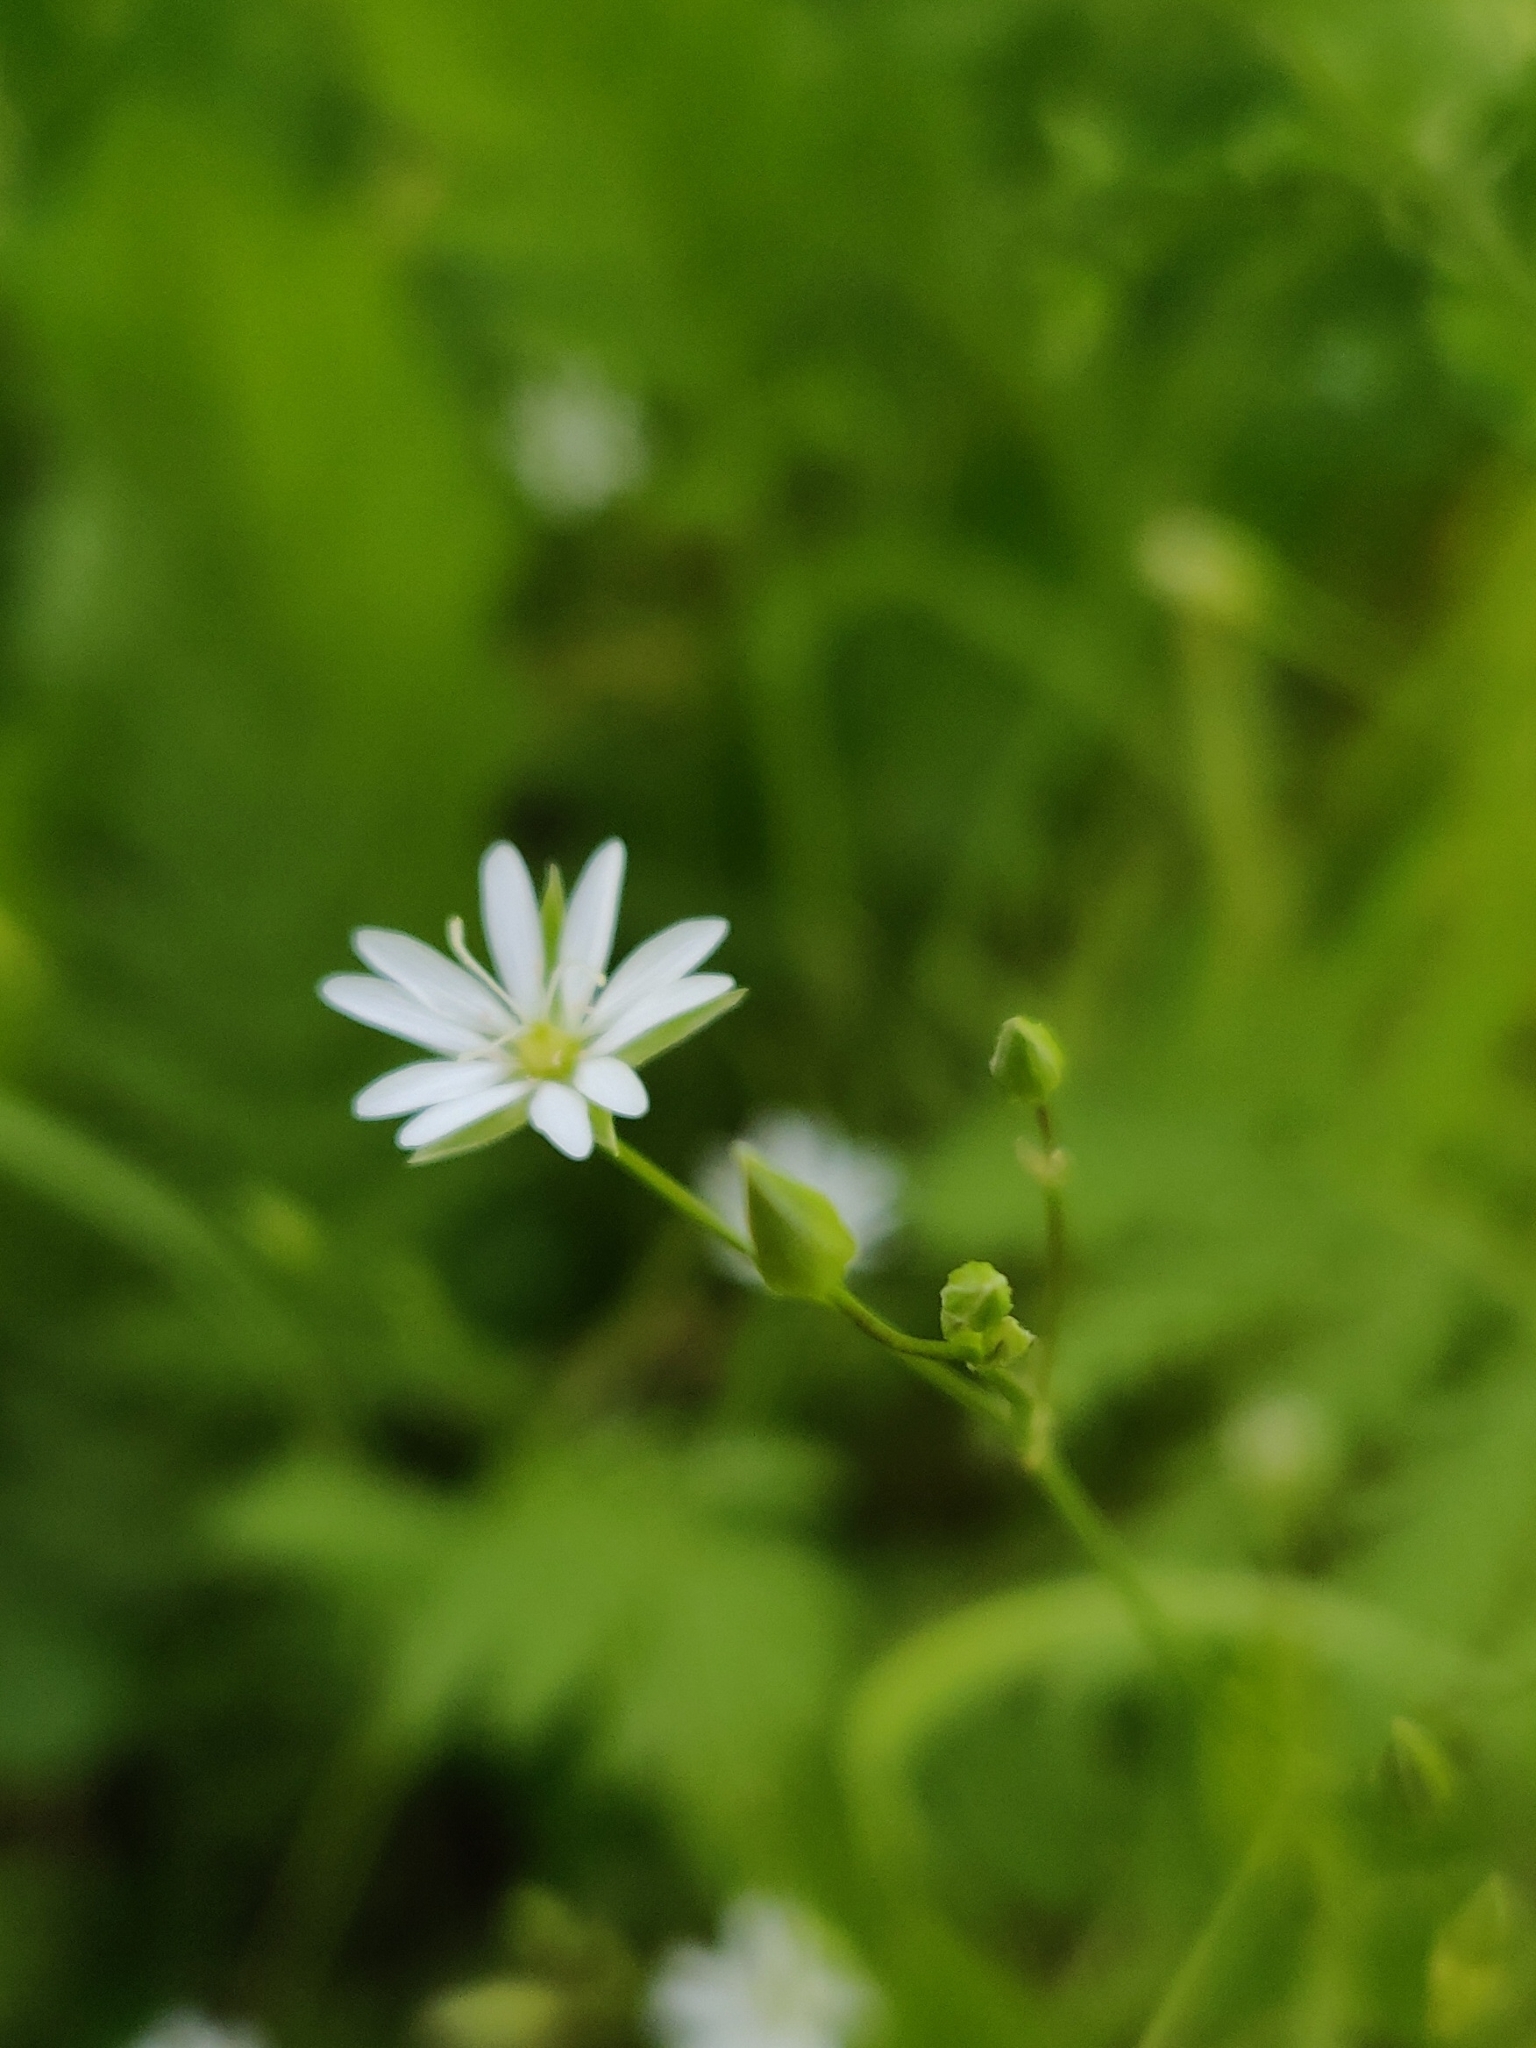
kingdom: Plantae
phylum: Tracheophyta
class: Magnoliopsida
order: Caryophyllales
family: Caryophyllaceae
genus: Stellaria
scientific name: Stellaria graminea
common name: Grass-like starwort
